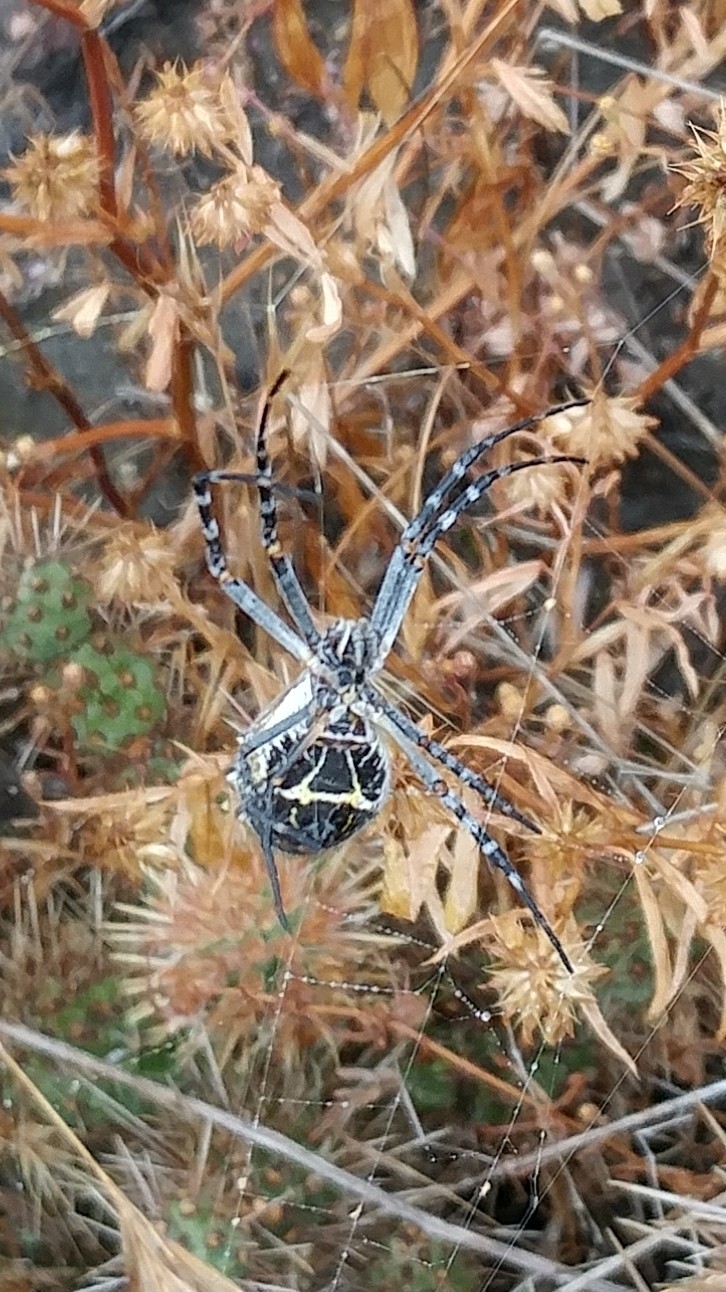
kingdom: Animalia
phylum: Arthropoda
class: Arachnida
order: Araneae
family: Araneidae
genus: Argiope
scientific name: Argiope argentata
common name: Orb weavers
